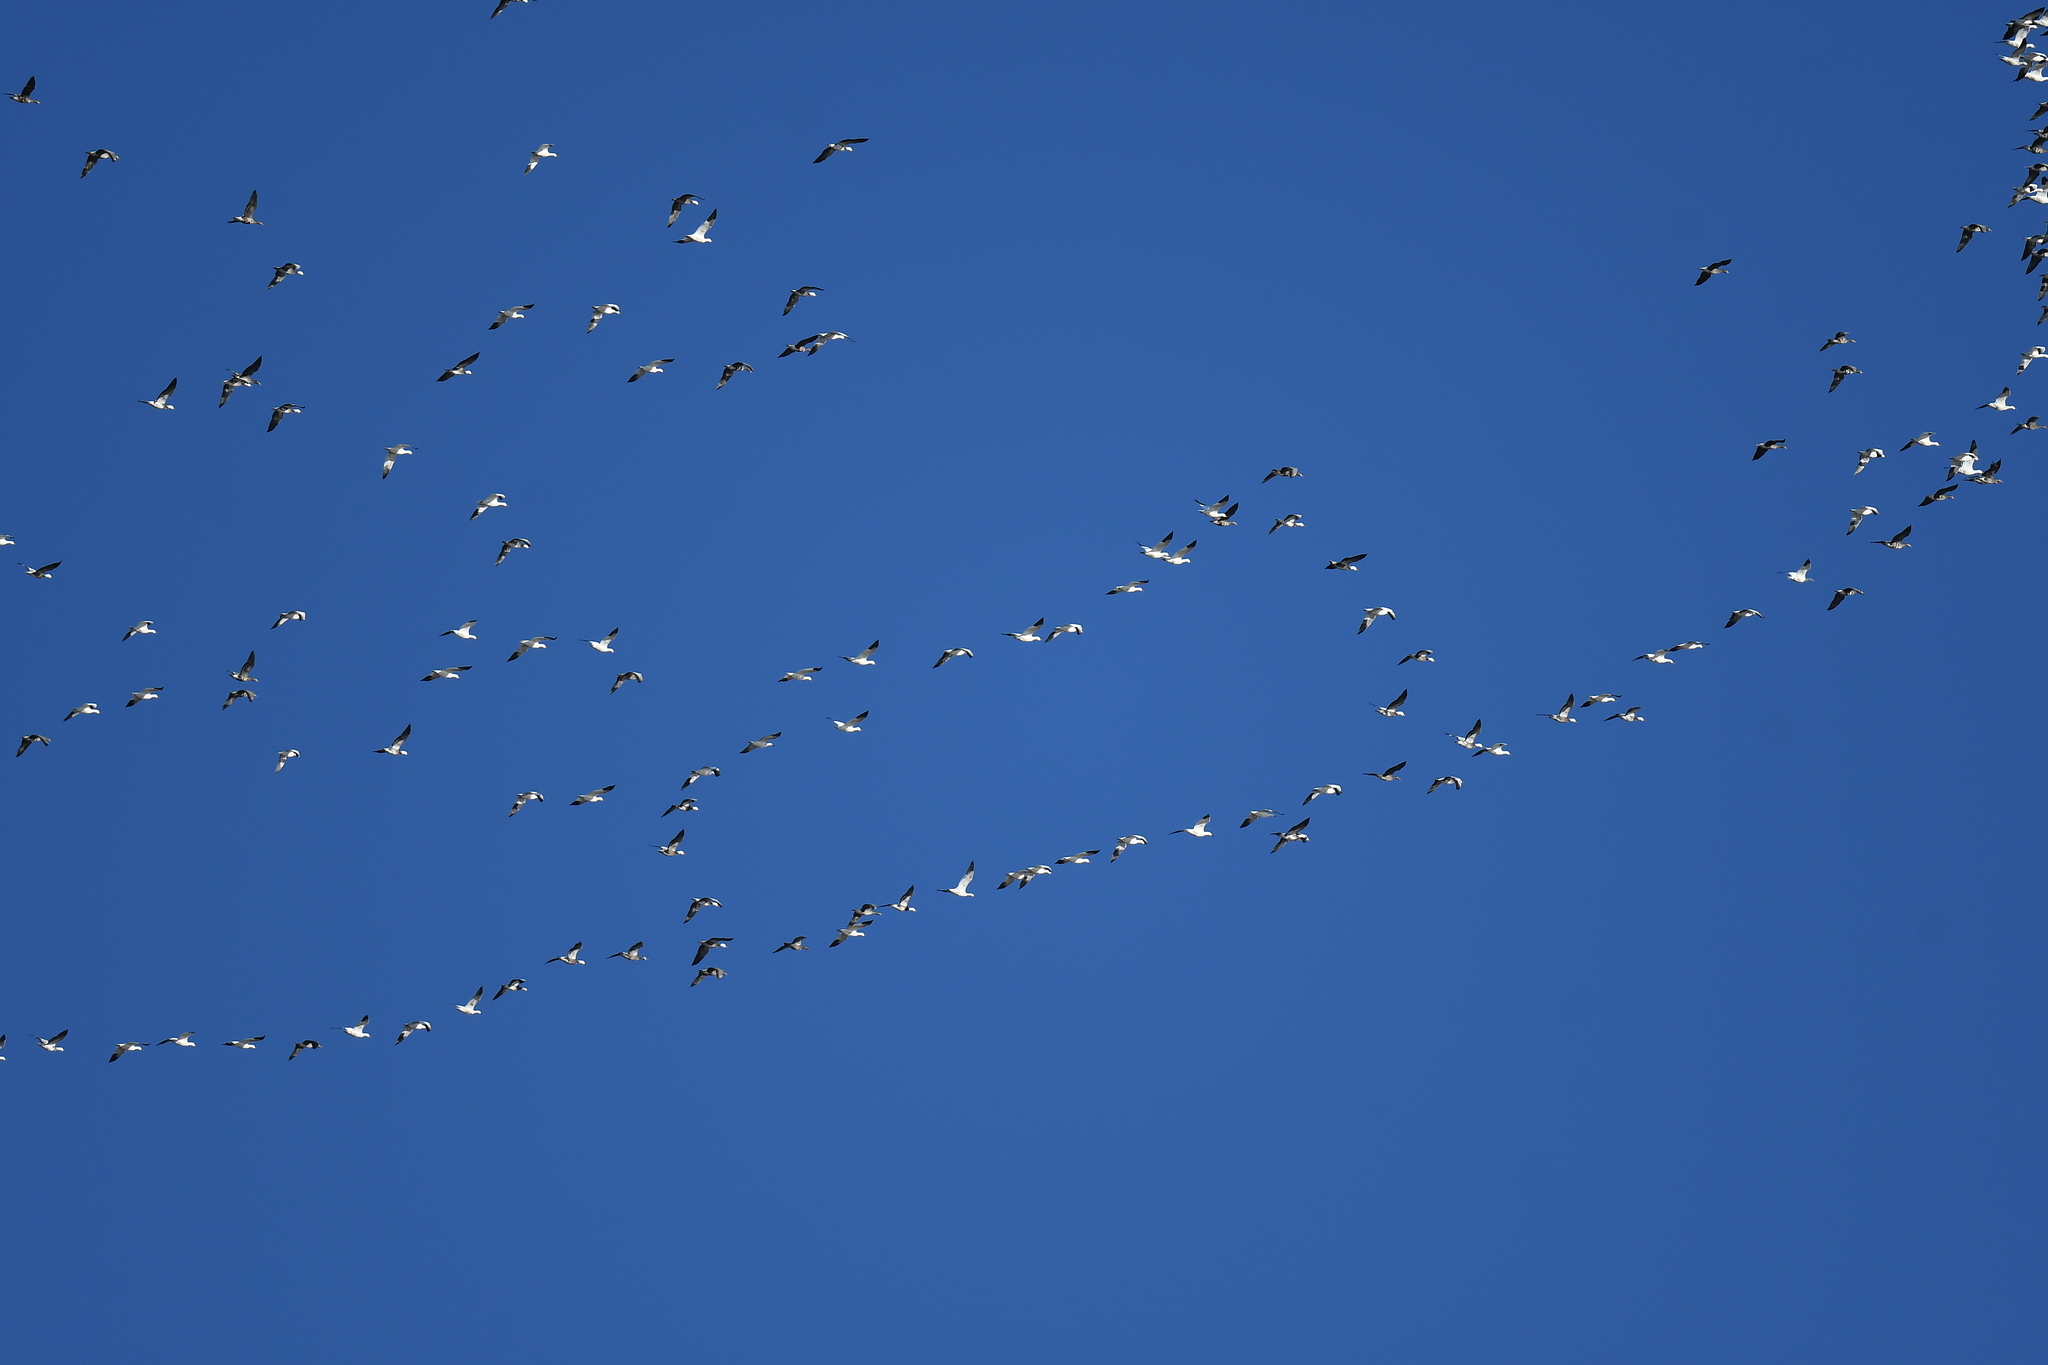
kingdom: Animalia
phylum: Chordata
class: Aves
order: Anseriformes
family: Anatidae
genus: Anser
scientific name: Anser caerulescens
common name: Snow goose
